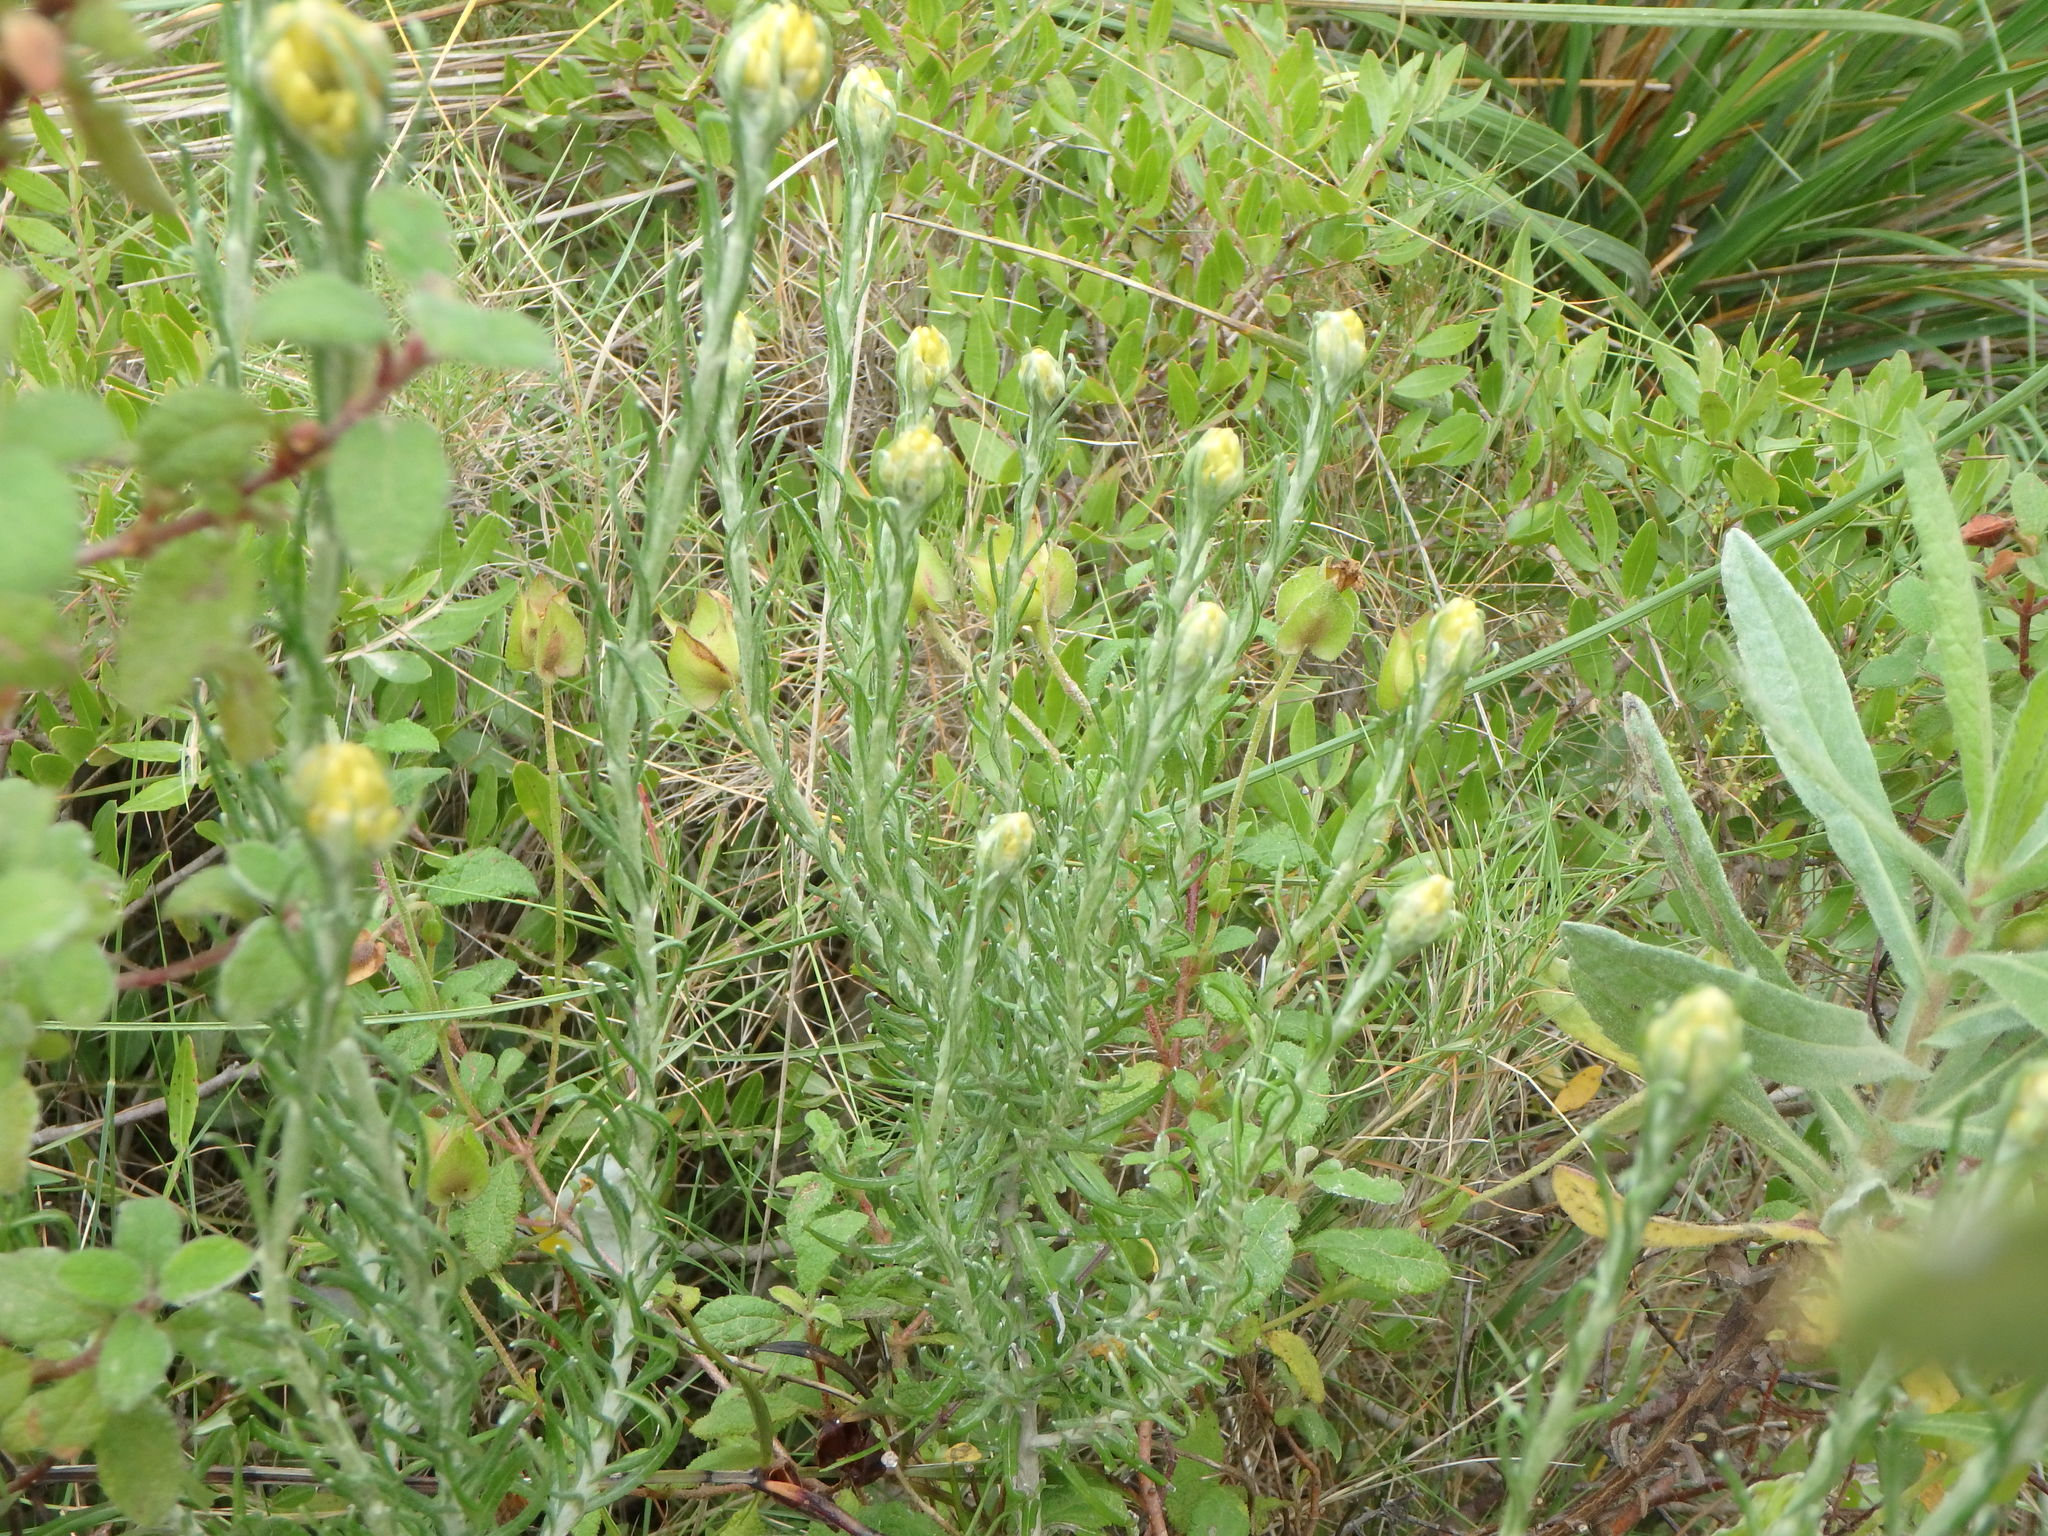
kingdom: Plantae
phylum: Tracheophyta
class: Magnoliopsida
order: Asterales
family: Asteraceae
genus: Helichrysum
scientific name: Helichrysum stoechas
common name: Goldilocks
